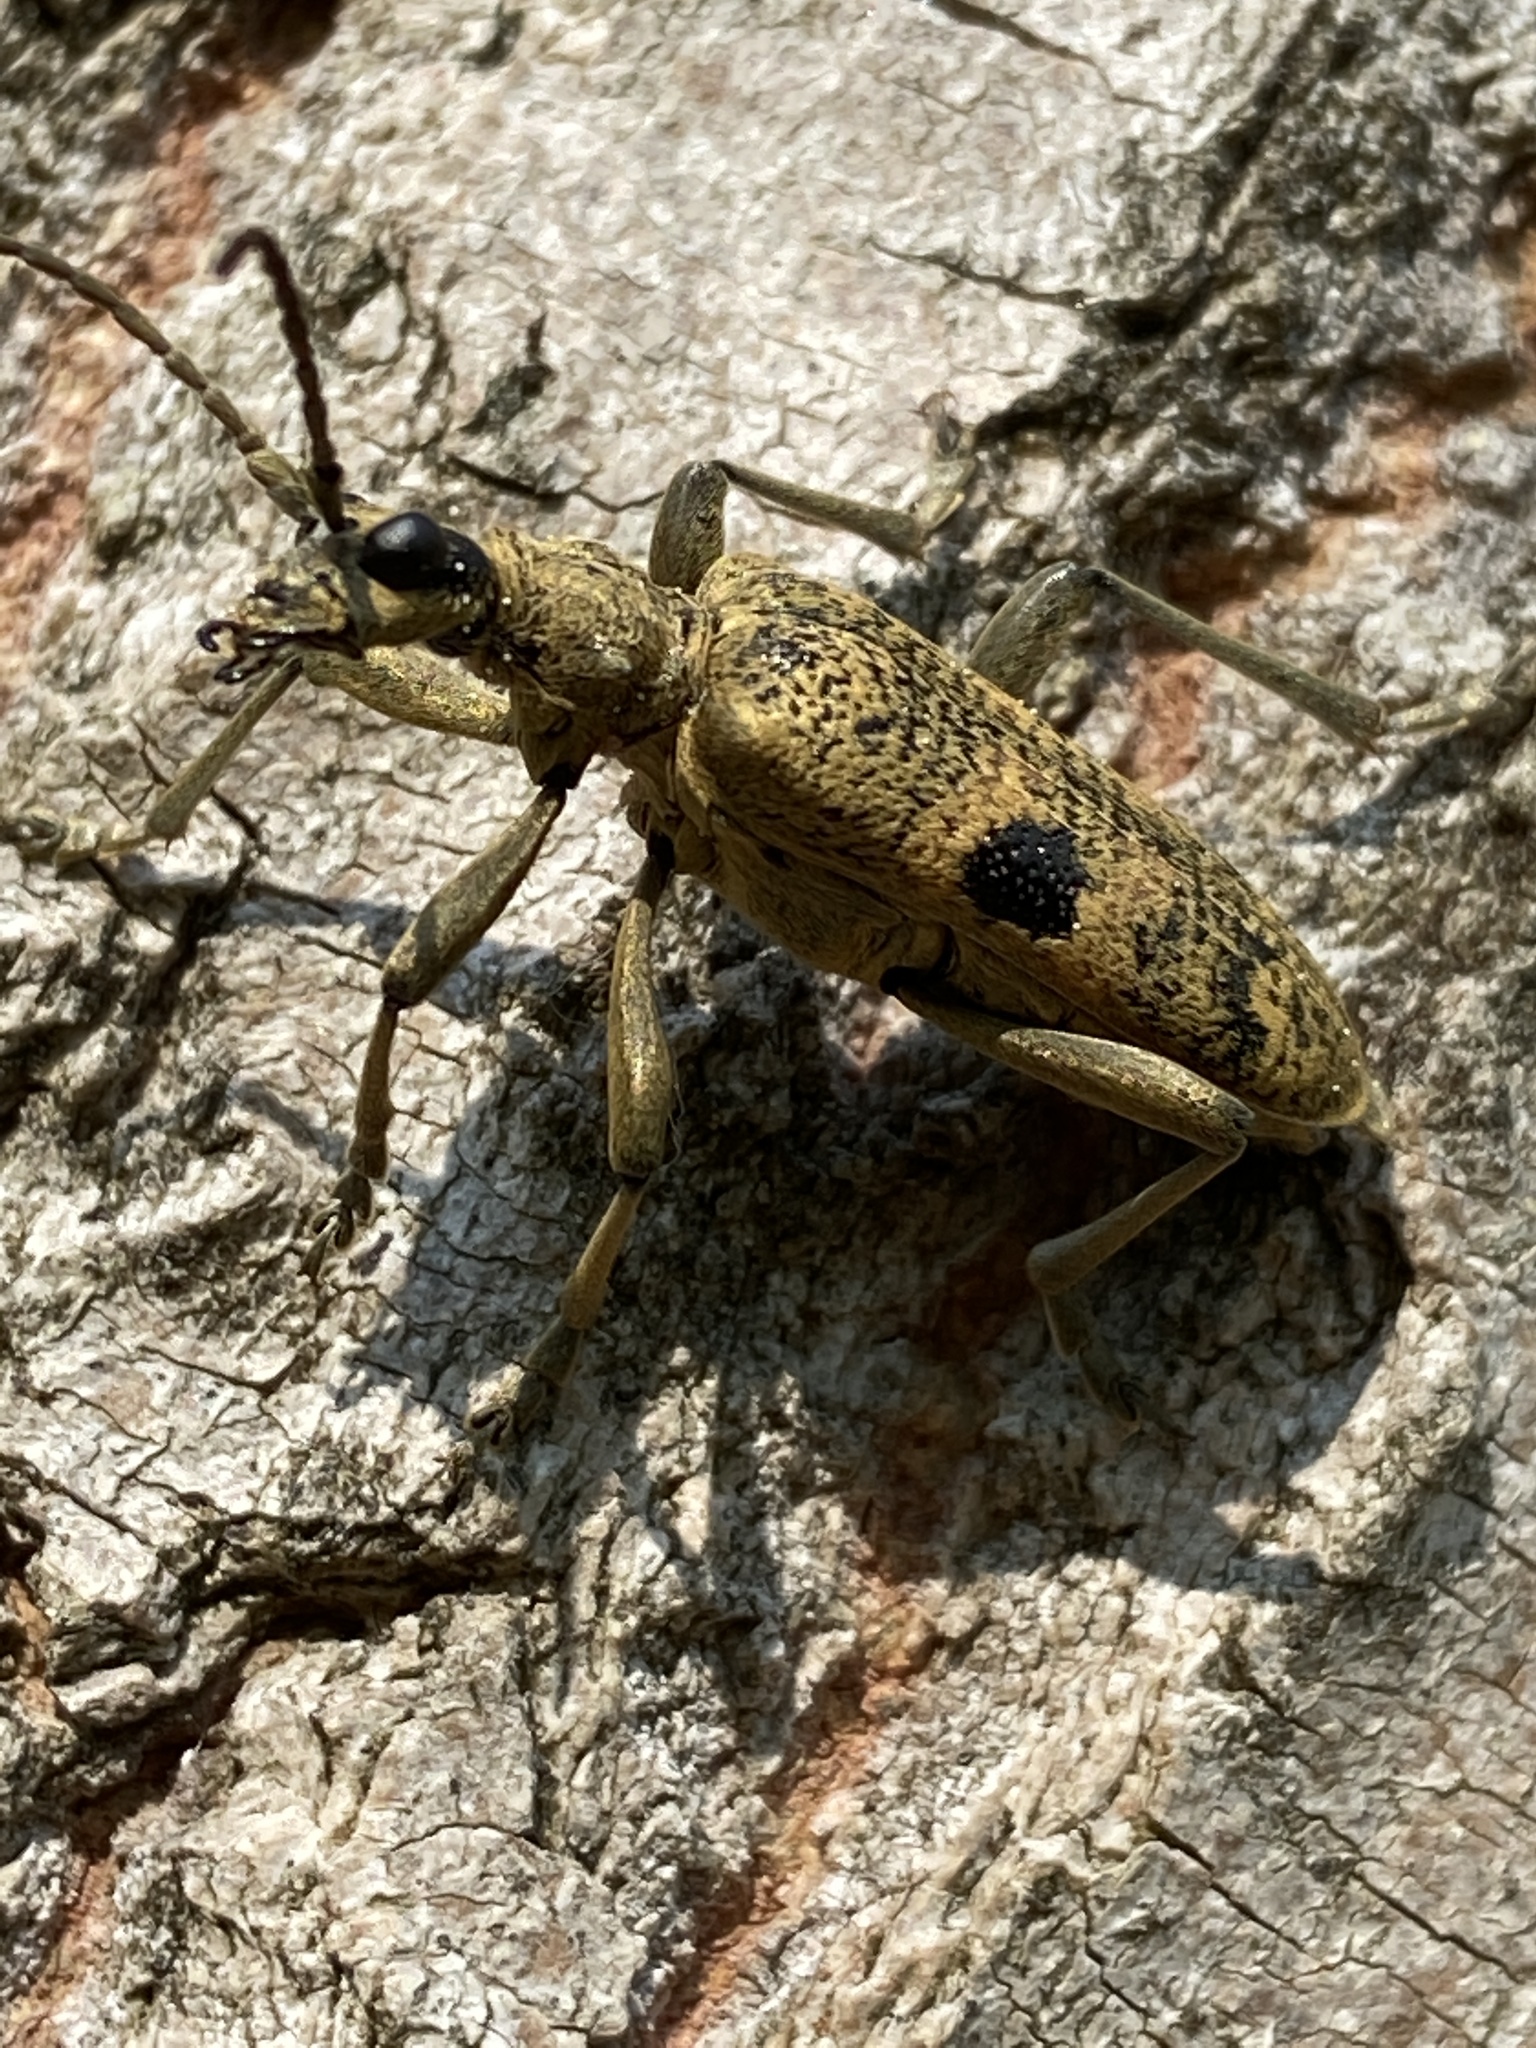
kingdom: Animalia
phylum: Arthropoda
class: Insecta
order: Coleoptera
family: Cerambycidae
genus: Rhagium
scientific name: Rhagium mordax
